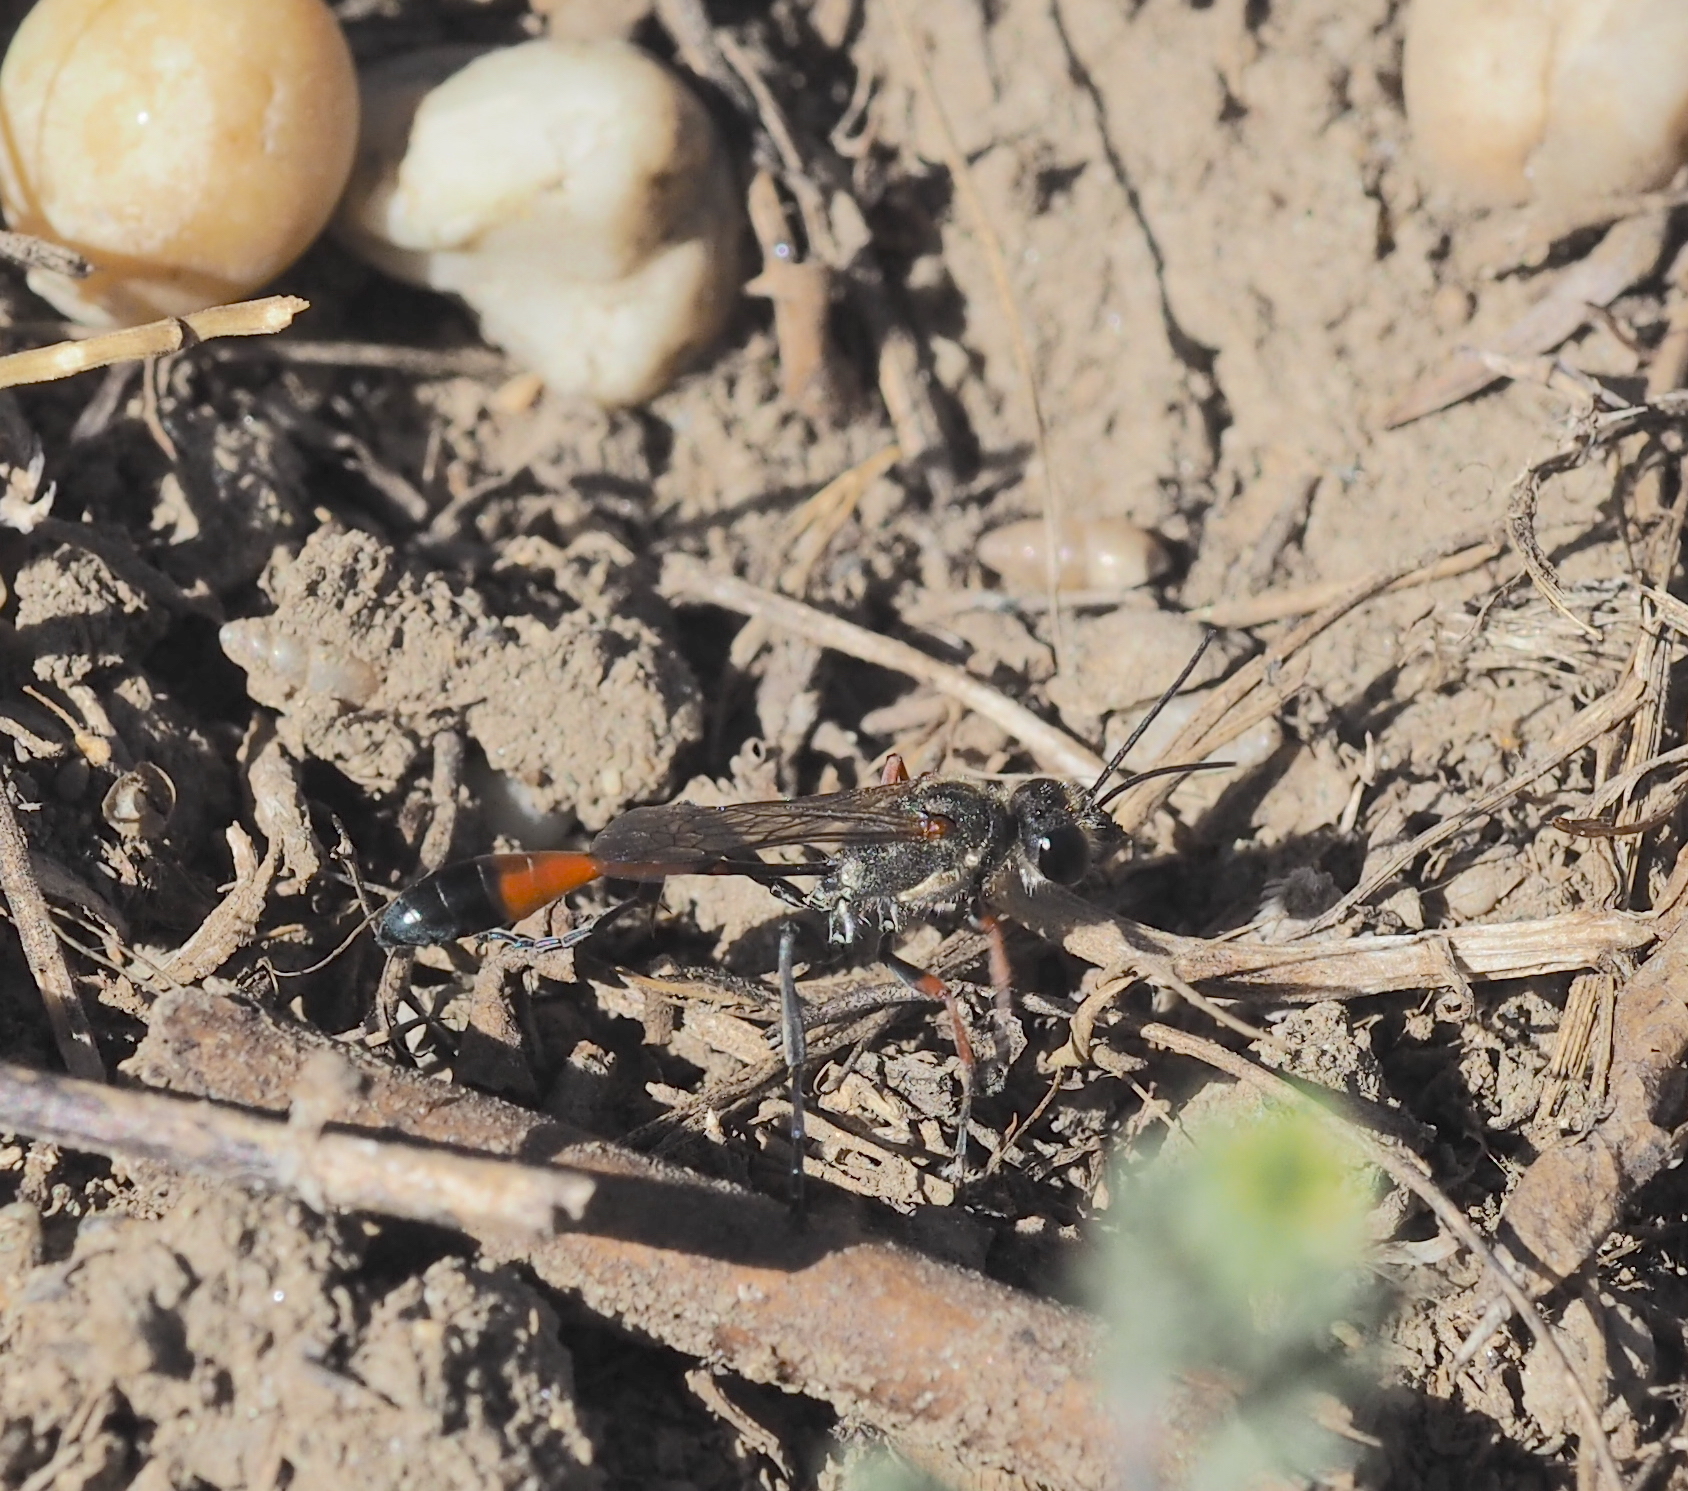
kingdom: Animalia
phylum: Arthropoda
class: Insecta
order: Hymenoptera
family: Sphecidae
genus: Ammophila
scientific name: Ammophila heydeni
